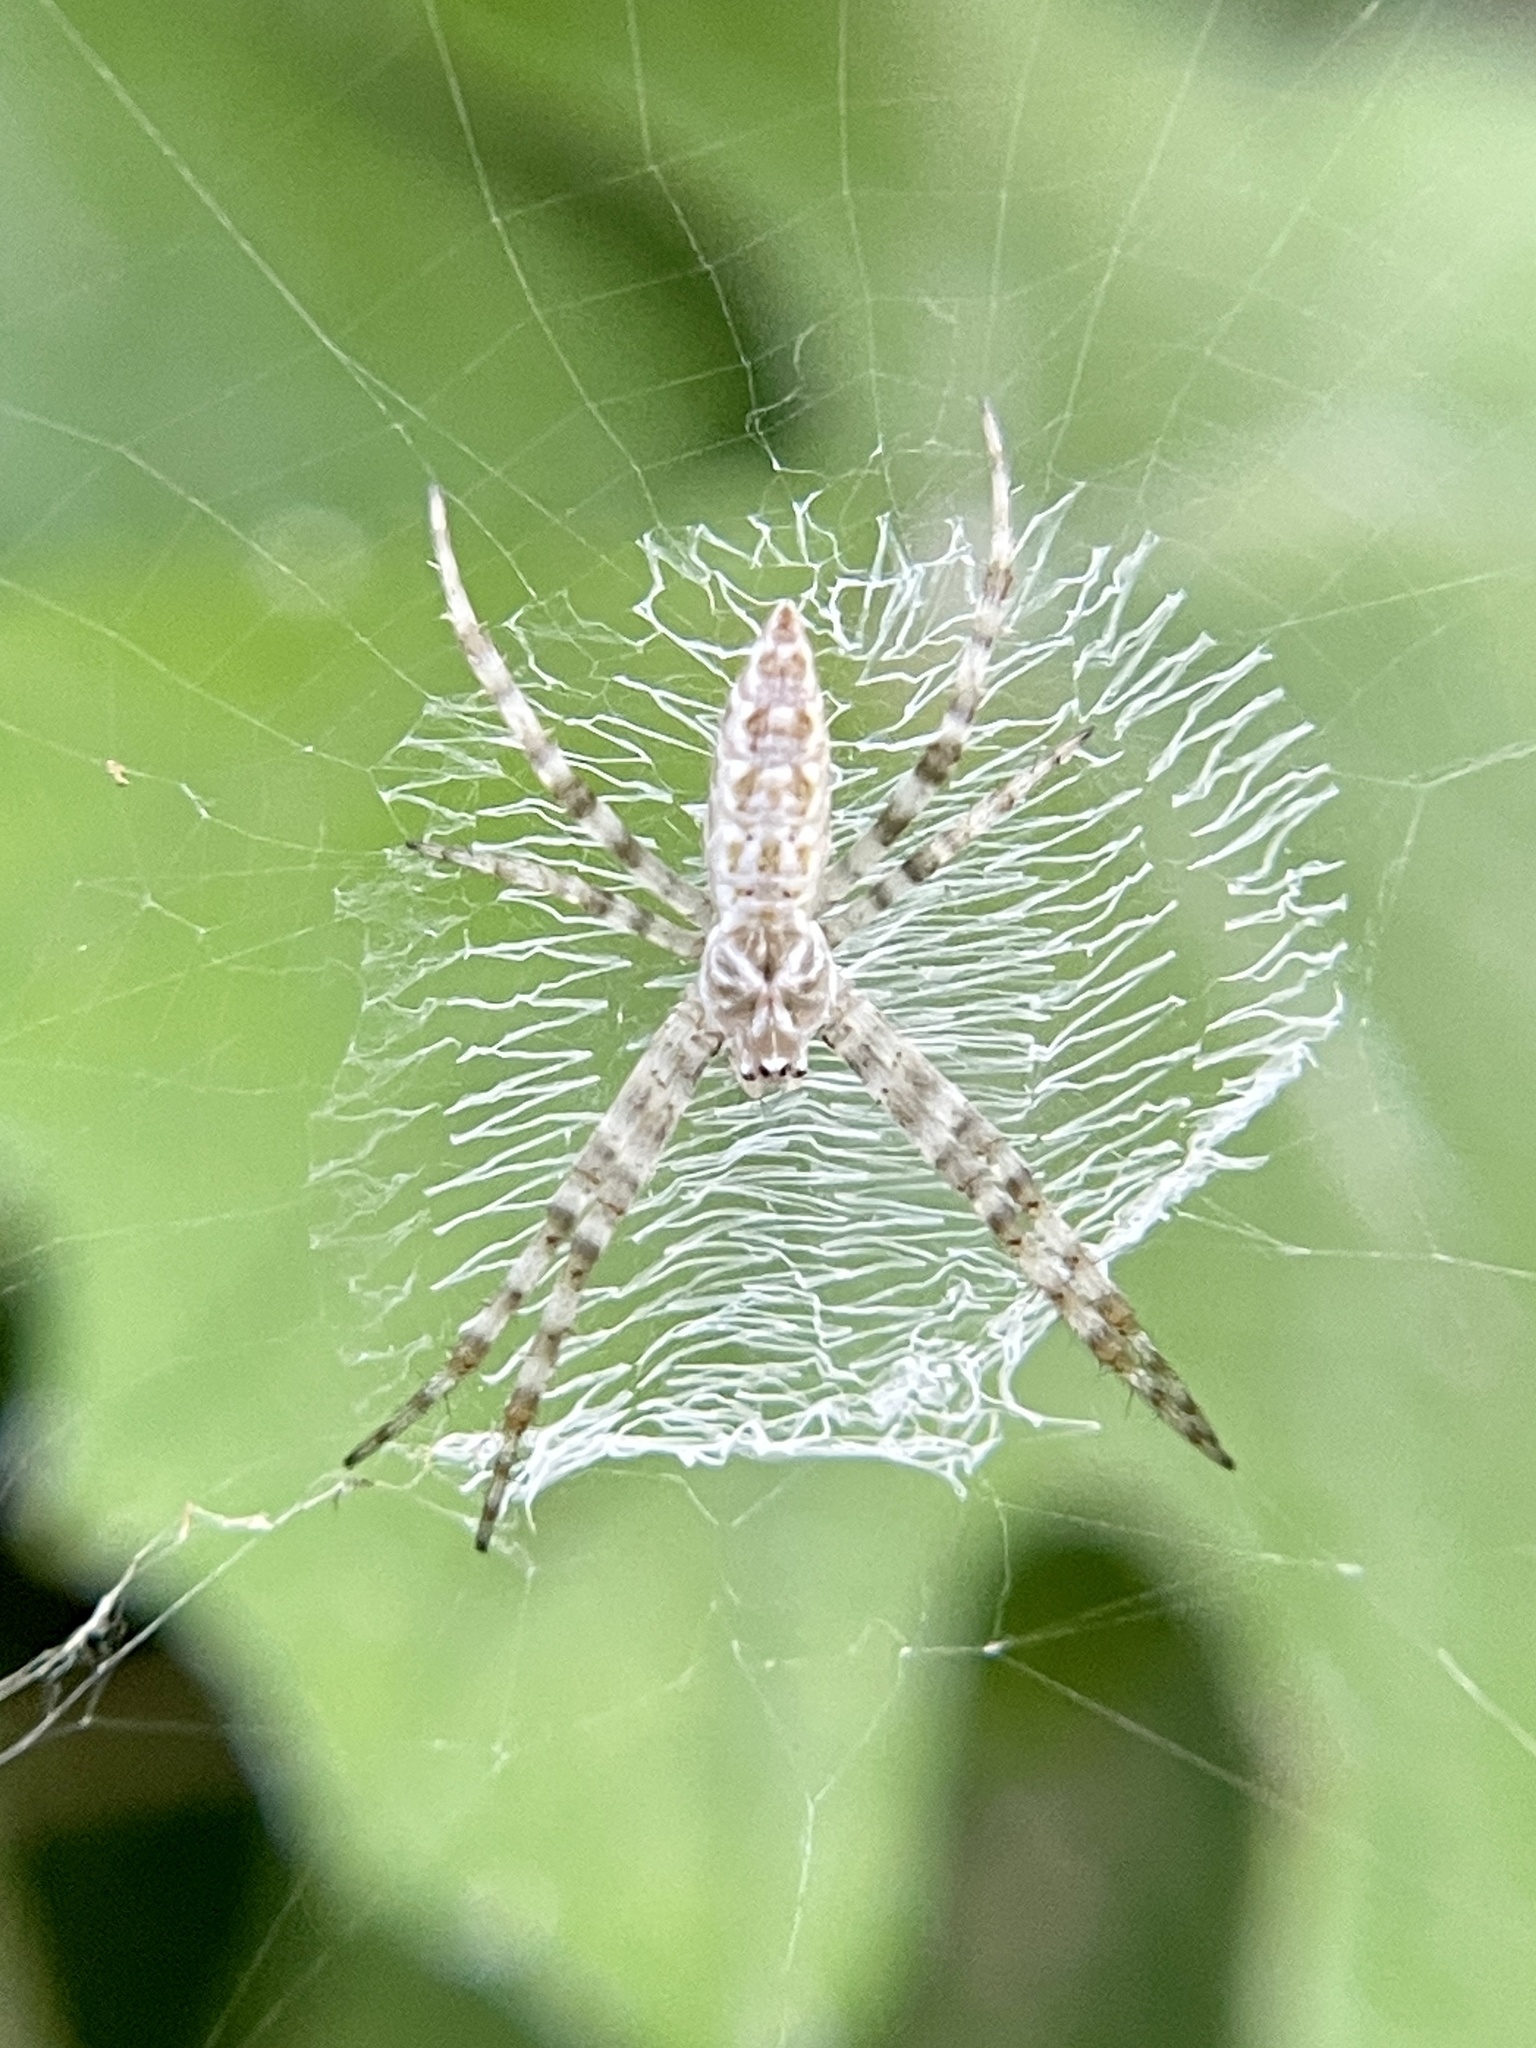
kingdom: Animalia
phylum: Arthropoda
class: Arachnida
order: Araneae
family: Araneidae
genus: Argiope
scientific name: Argiope aurantia
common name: Orb weavers
